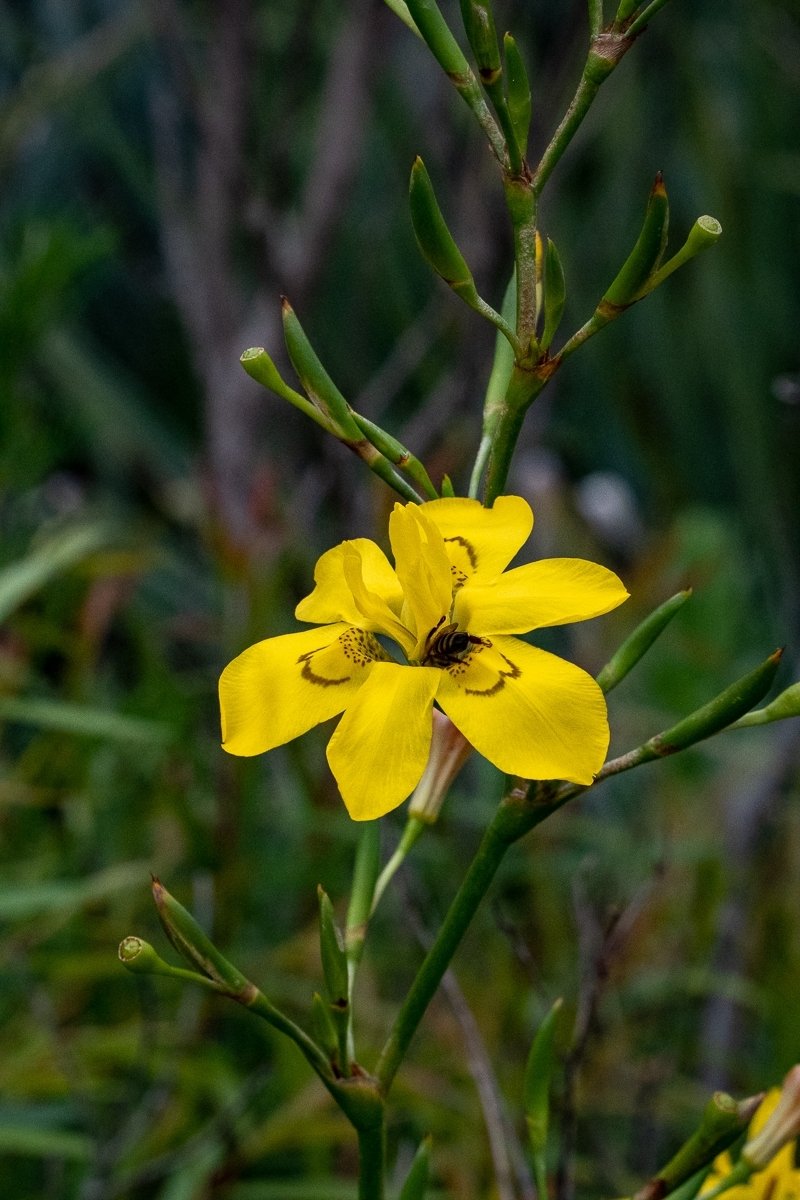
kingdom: Plantae
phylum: Tracheophyta
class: Liliopsida
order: Asparagales
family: Iridaceae
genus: Moraea
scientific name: Moraea ramosissima
